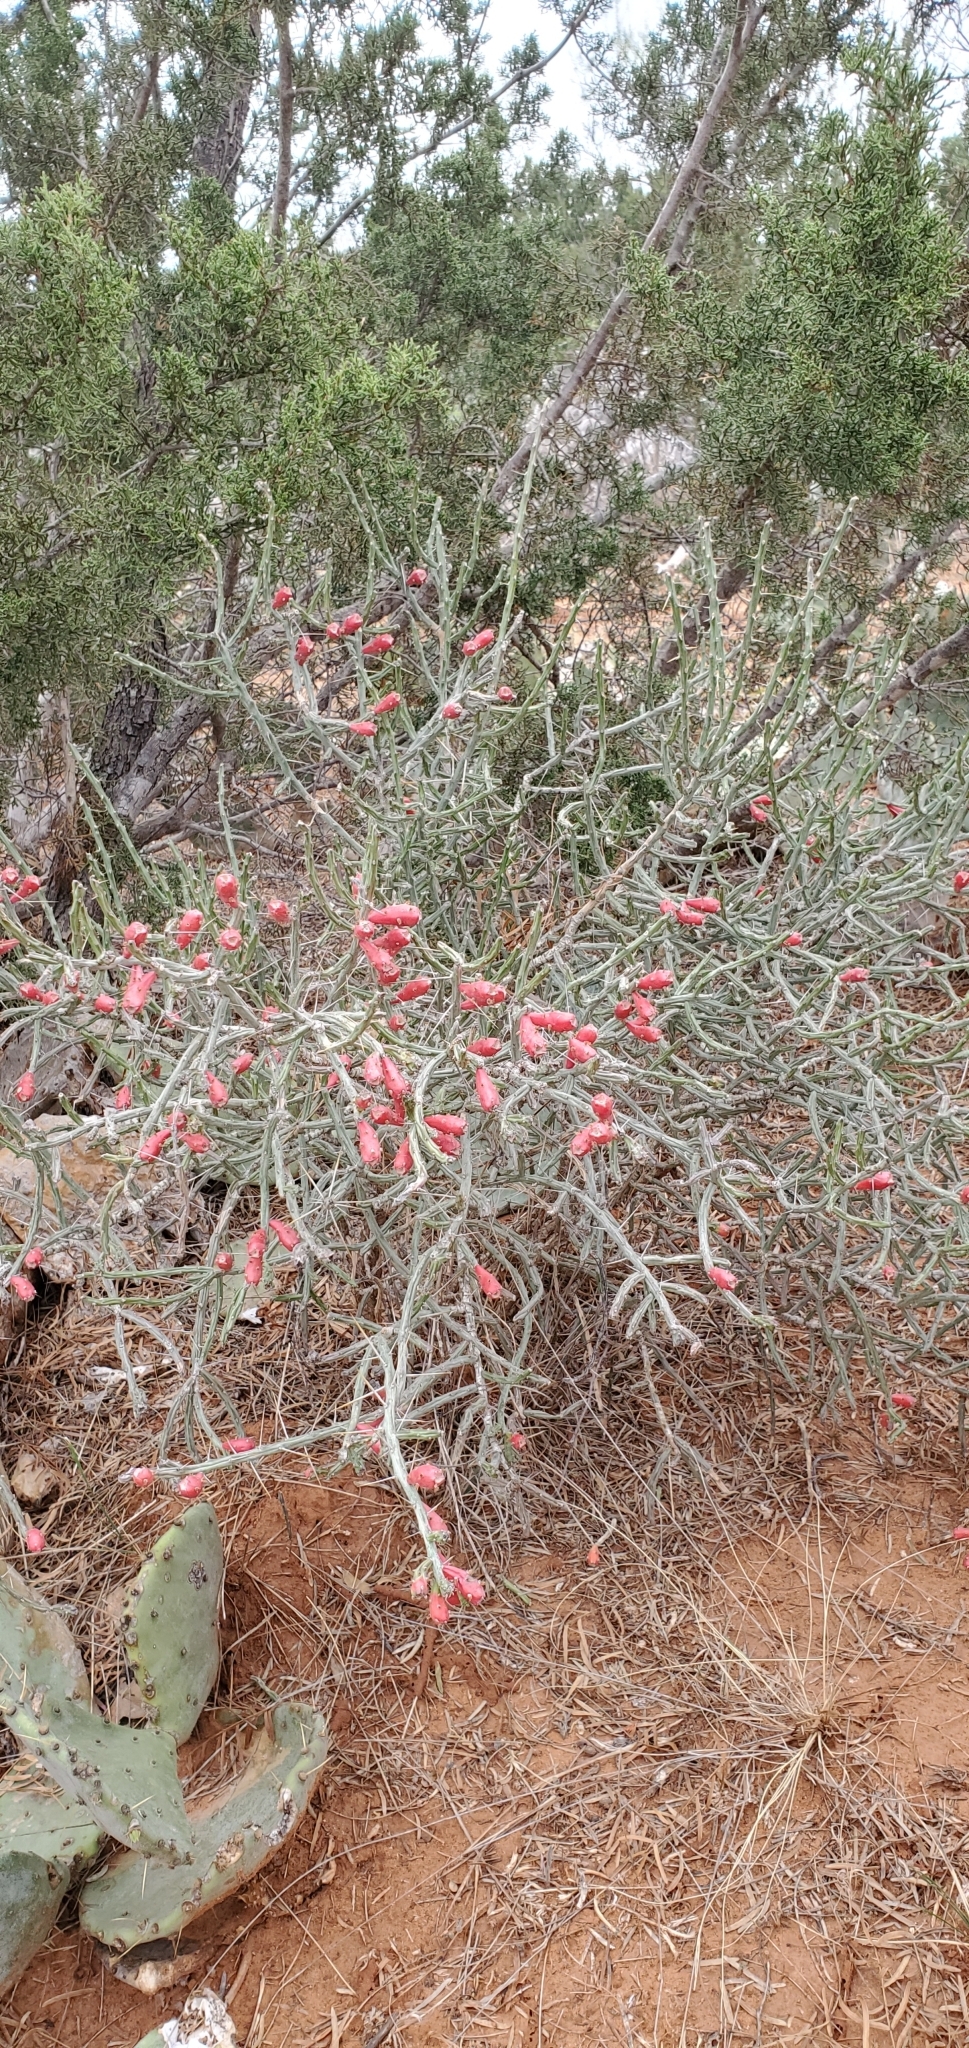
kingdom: Plantae
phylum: Tracheophyta
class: Magnoliopsida
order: Caryophyllales
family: Cactaceae
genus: Cylindropuntia
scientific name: Cylindropuntia leptocaulis
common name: Christmas cactus
